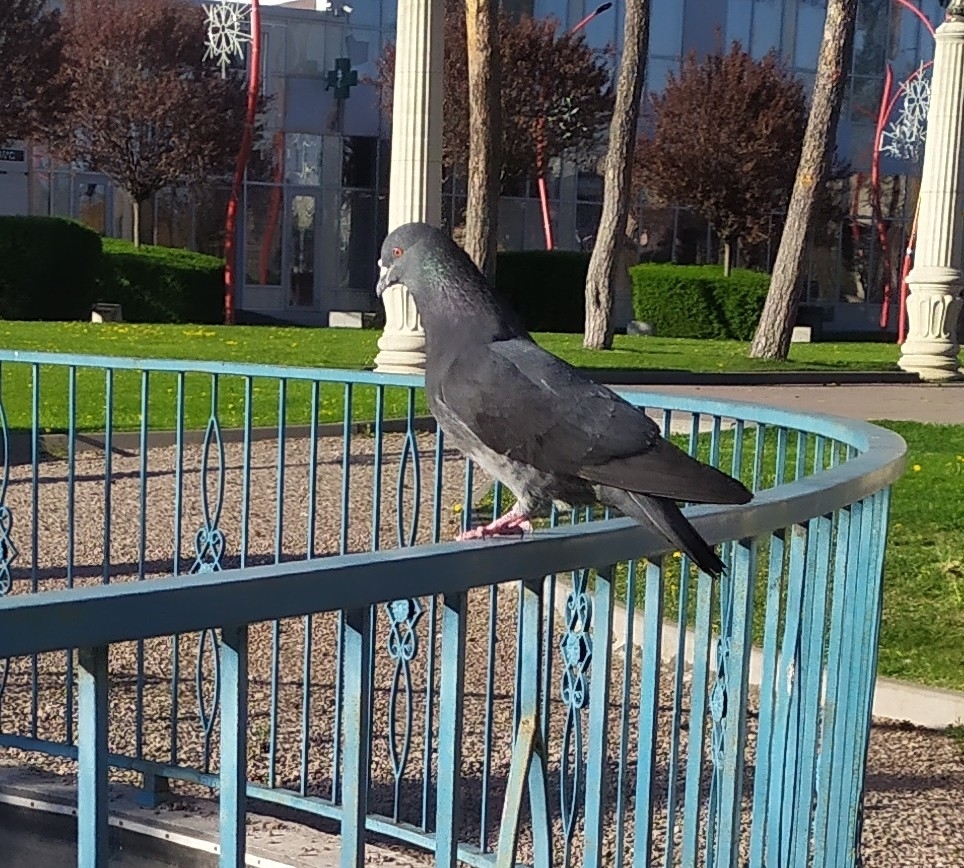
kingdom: Animalia
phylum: Chordata
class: Aves
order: Columbiformes
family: Columbidae
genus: Columba
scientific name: Columba livia
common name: Rock pigeon
